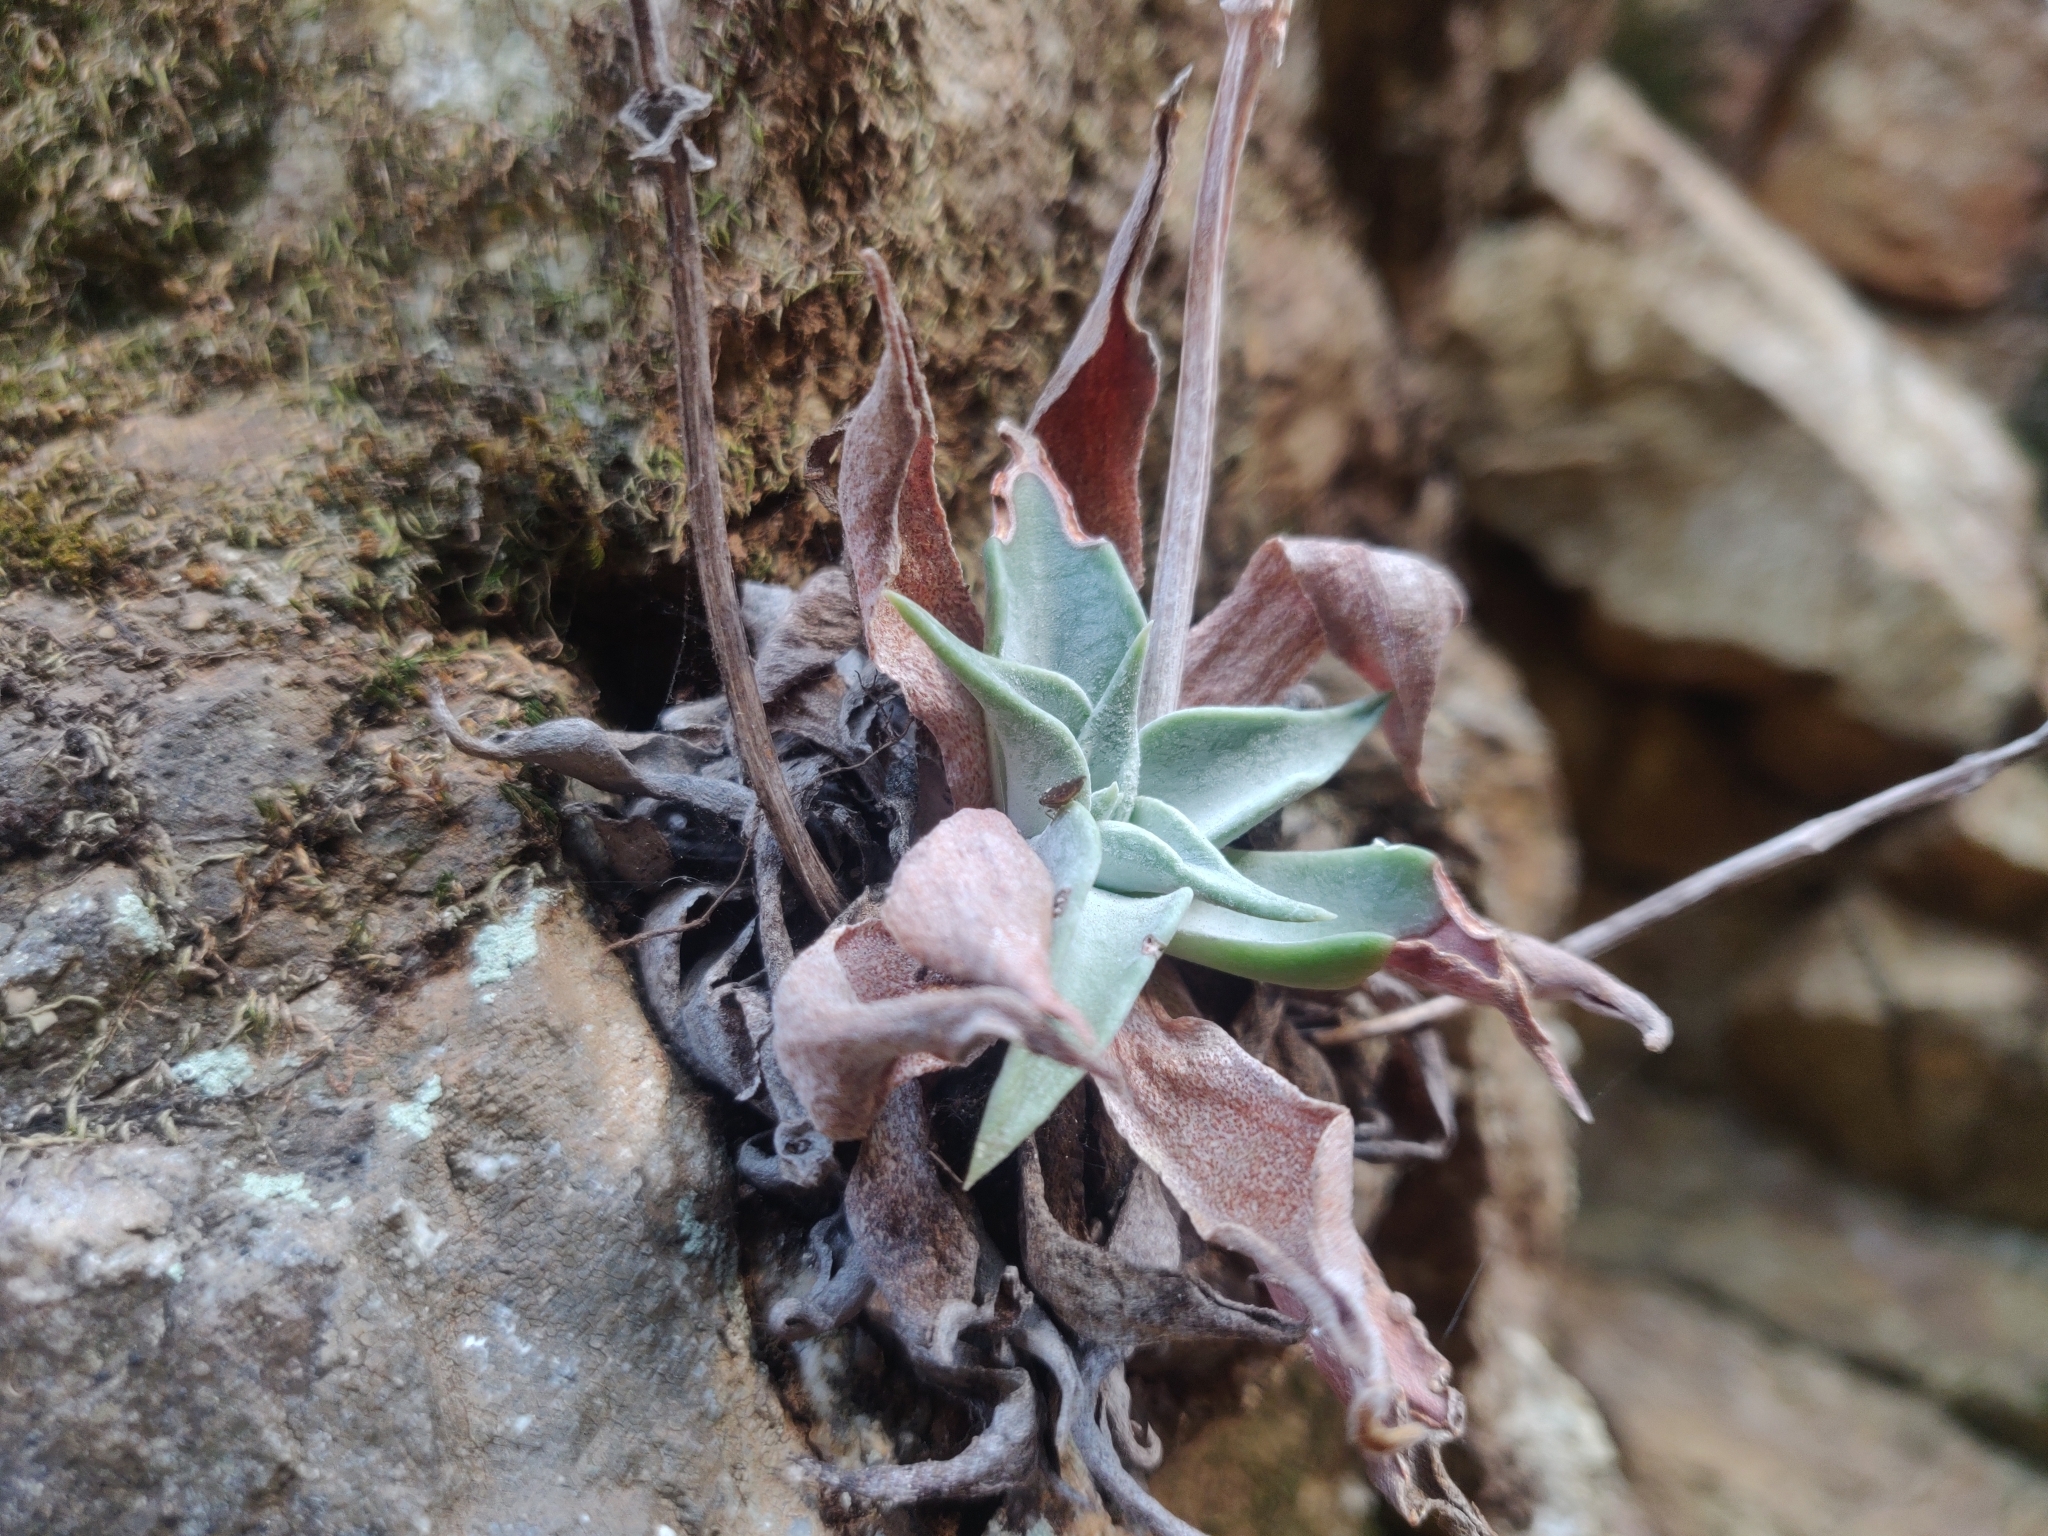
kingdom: Plantae
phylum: Tracheophyta
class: Magnoliopsida
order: Saxifragales
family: Crassulaceae
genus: Dudleya
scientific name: Dudleya cymosa
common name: Canyon dudleya
